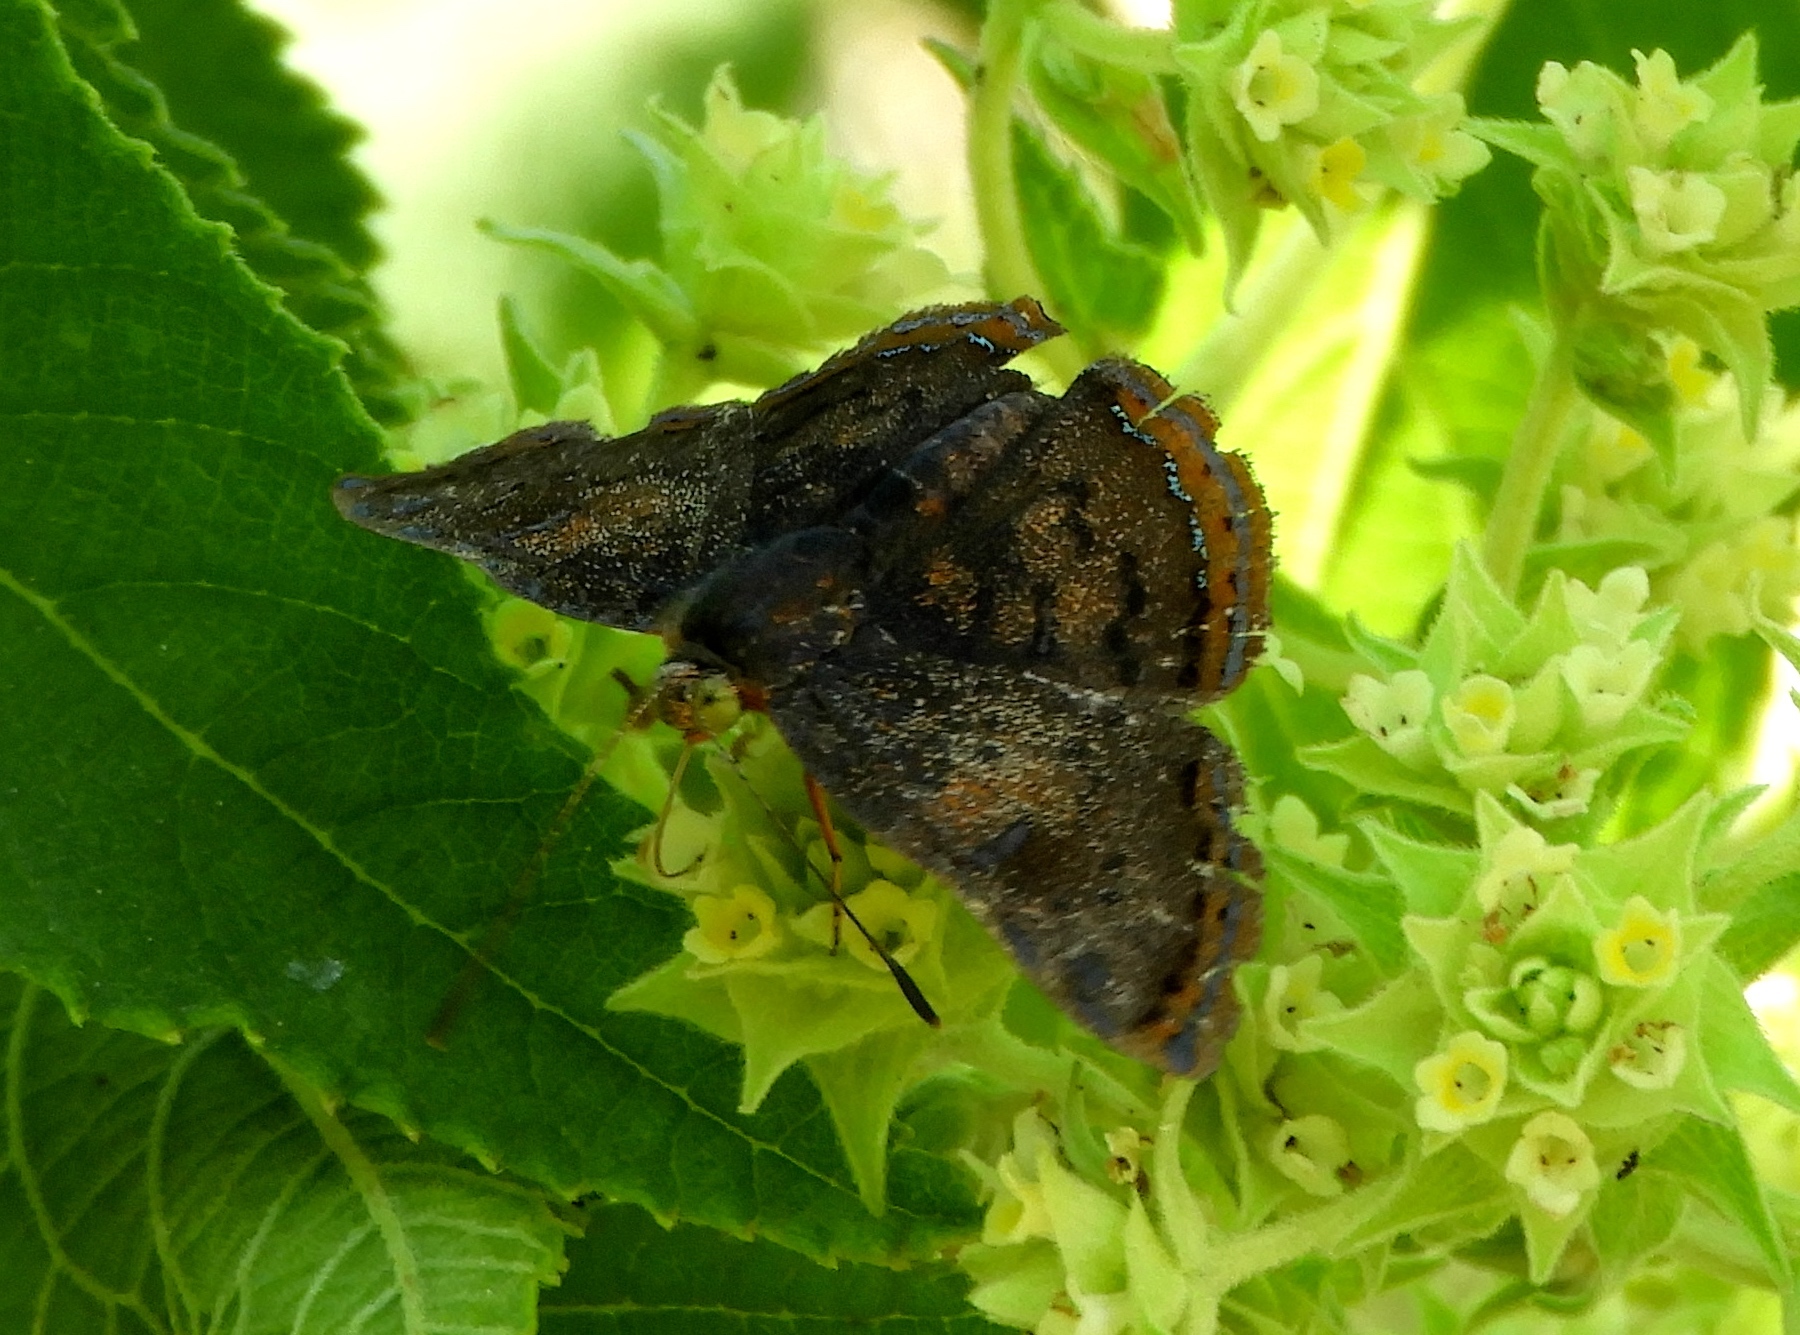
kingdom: Animalia
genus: Caria
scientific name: Caria ino
